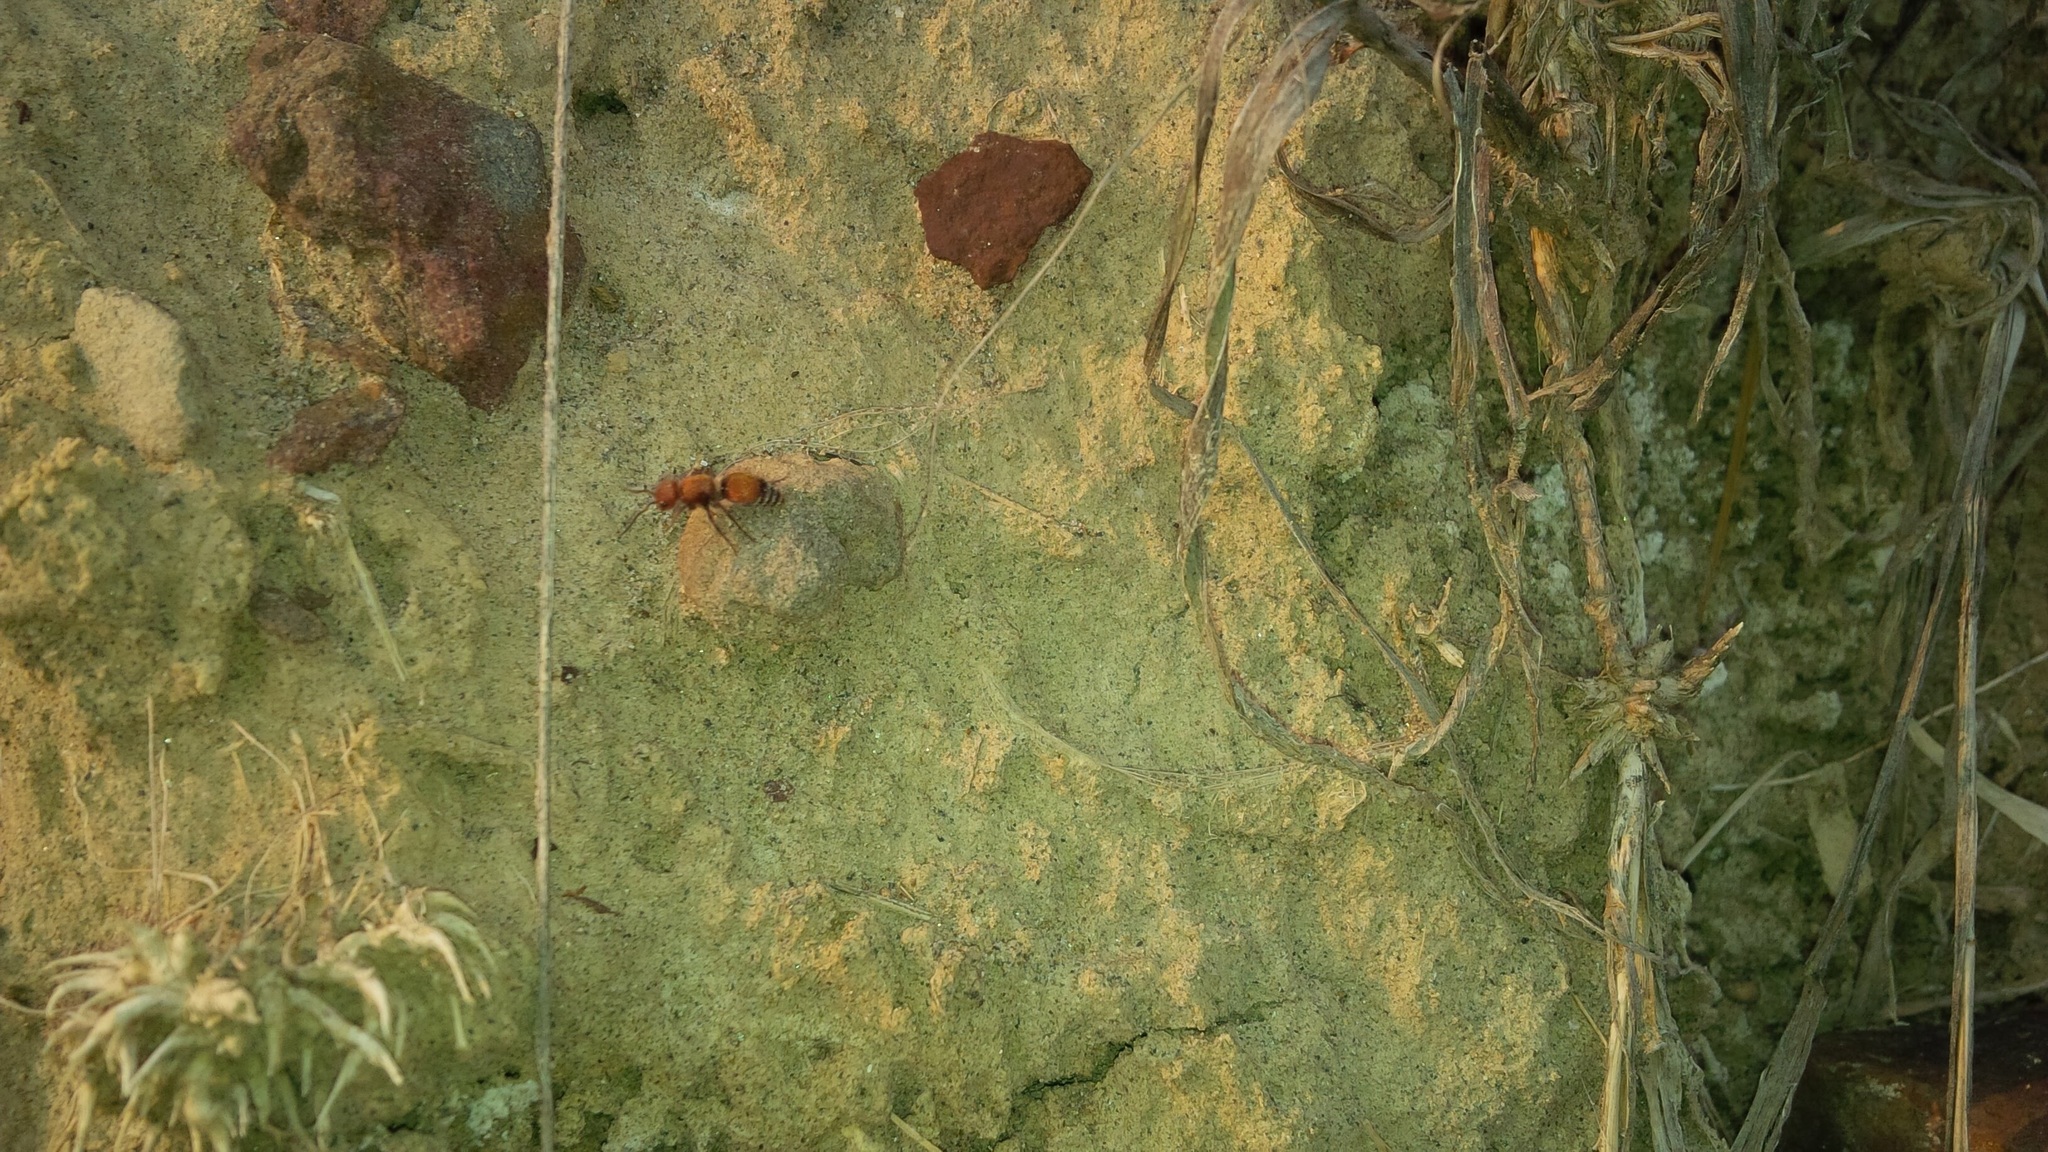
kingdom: Animalia
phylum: Arthropoda
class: Insecta
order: Hymenoptera
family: Mutillidae
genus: Pseudomethoca
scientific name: Pseudomethoca
